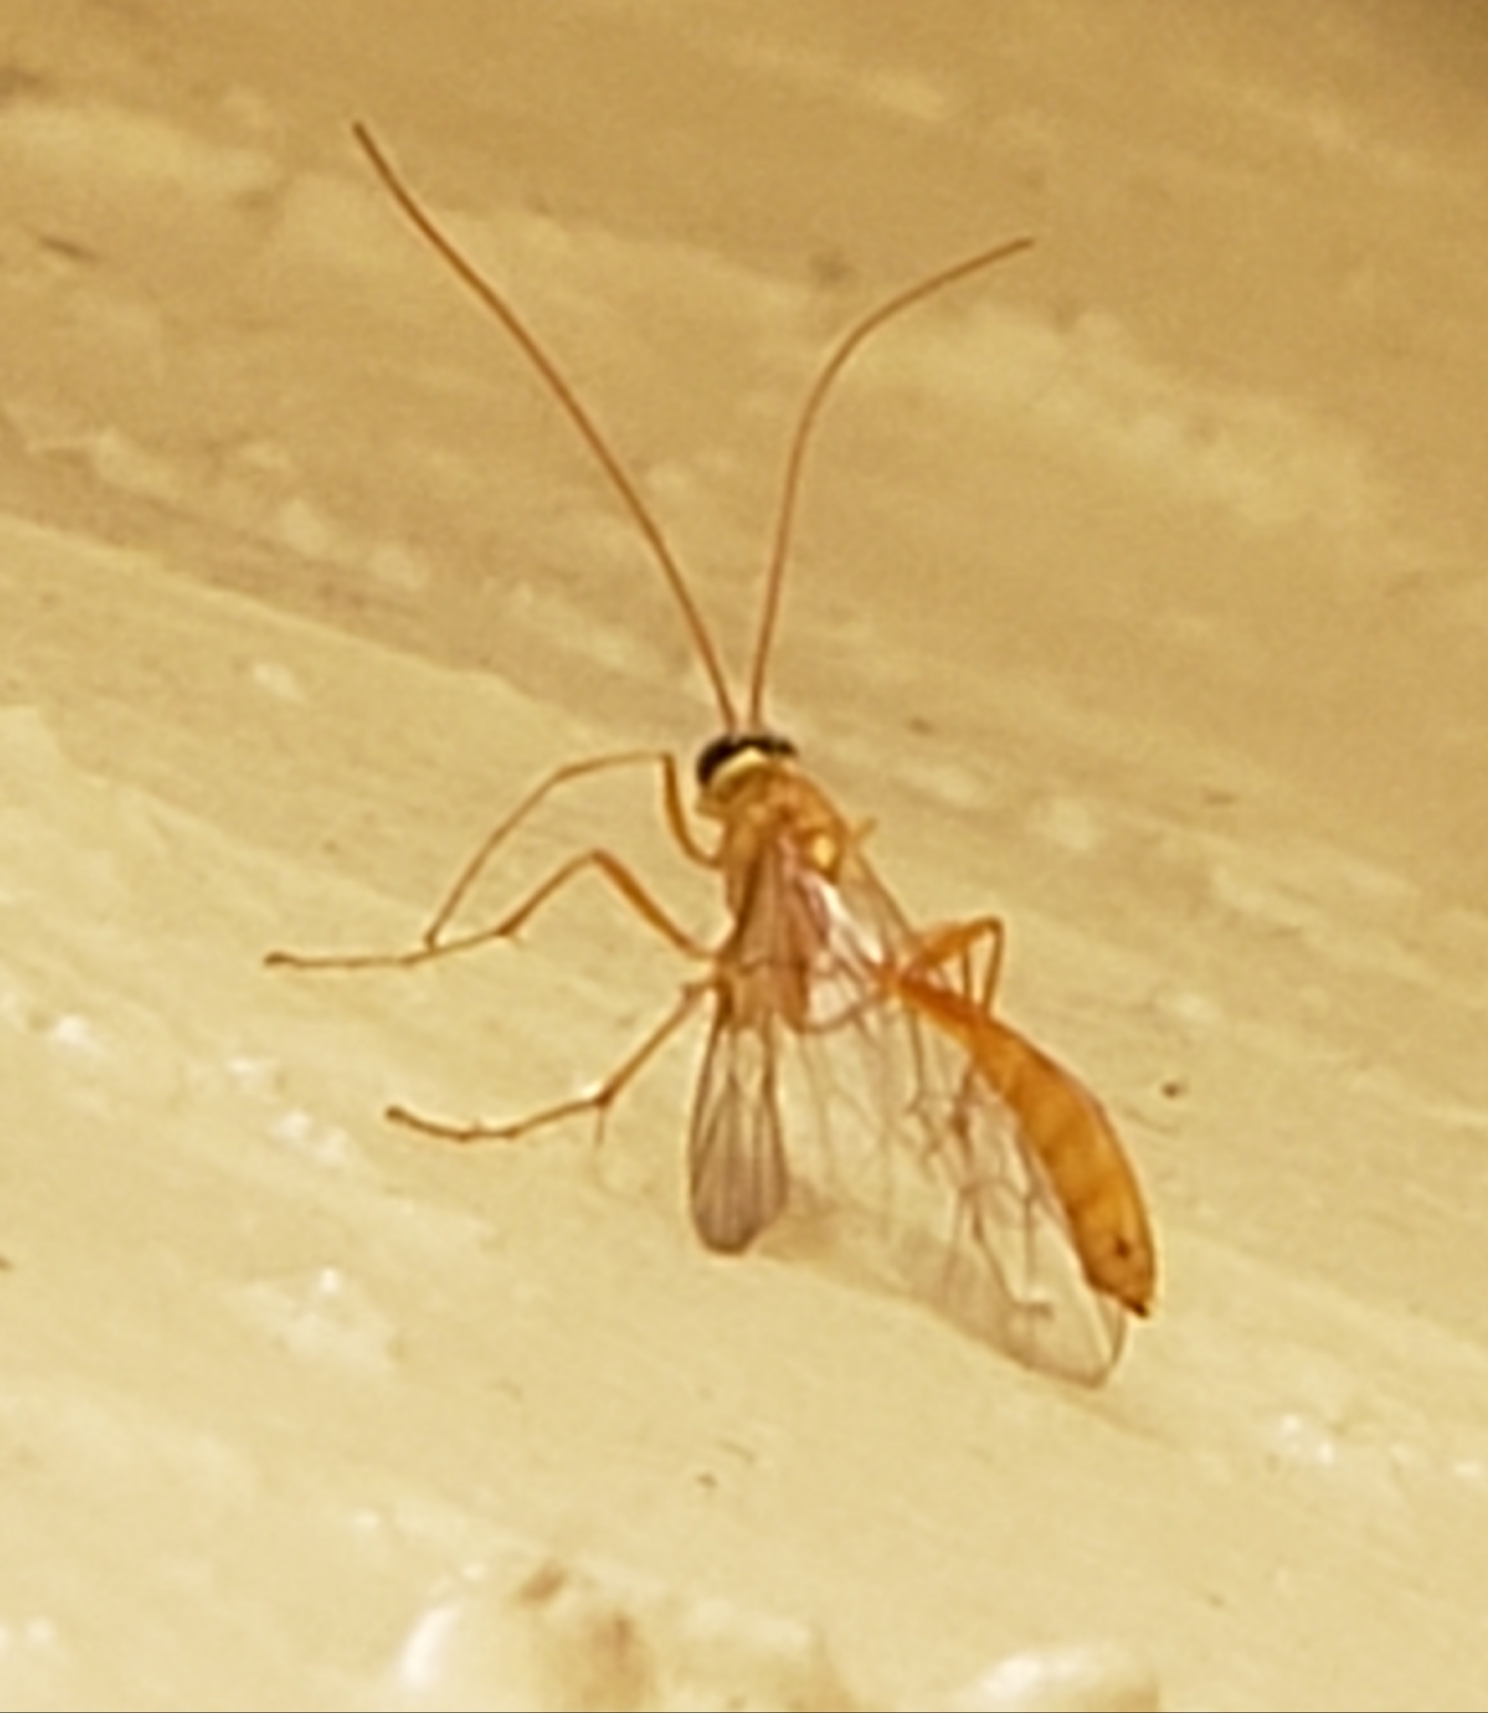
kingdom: Animalia
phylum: Arthropoda
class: Insecta
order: Hymenoptera
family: Ichneumonidae
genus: Ophion
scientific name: Ophion
